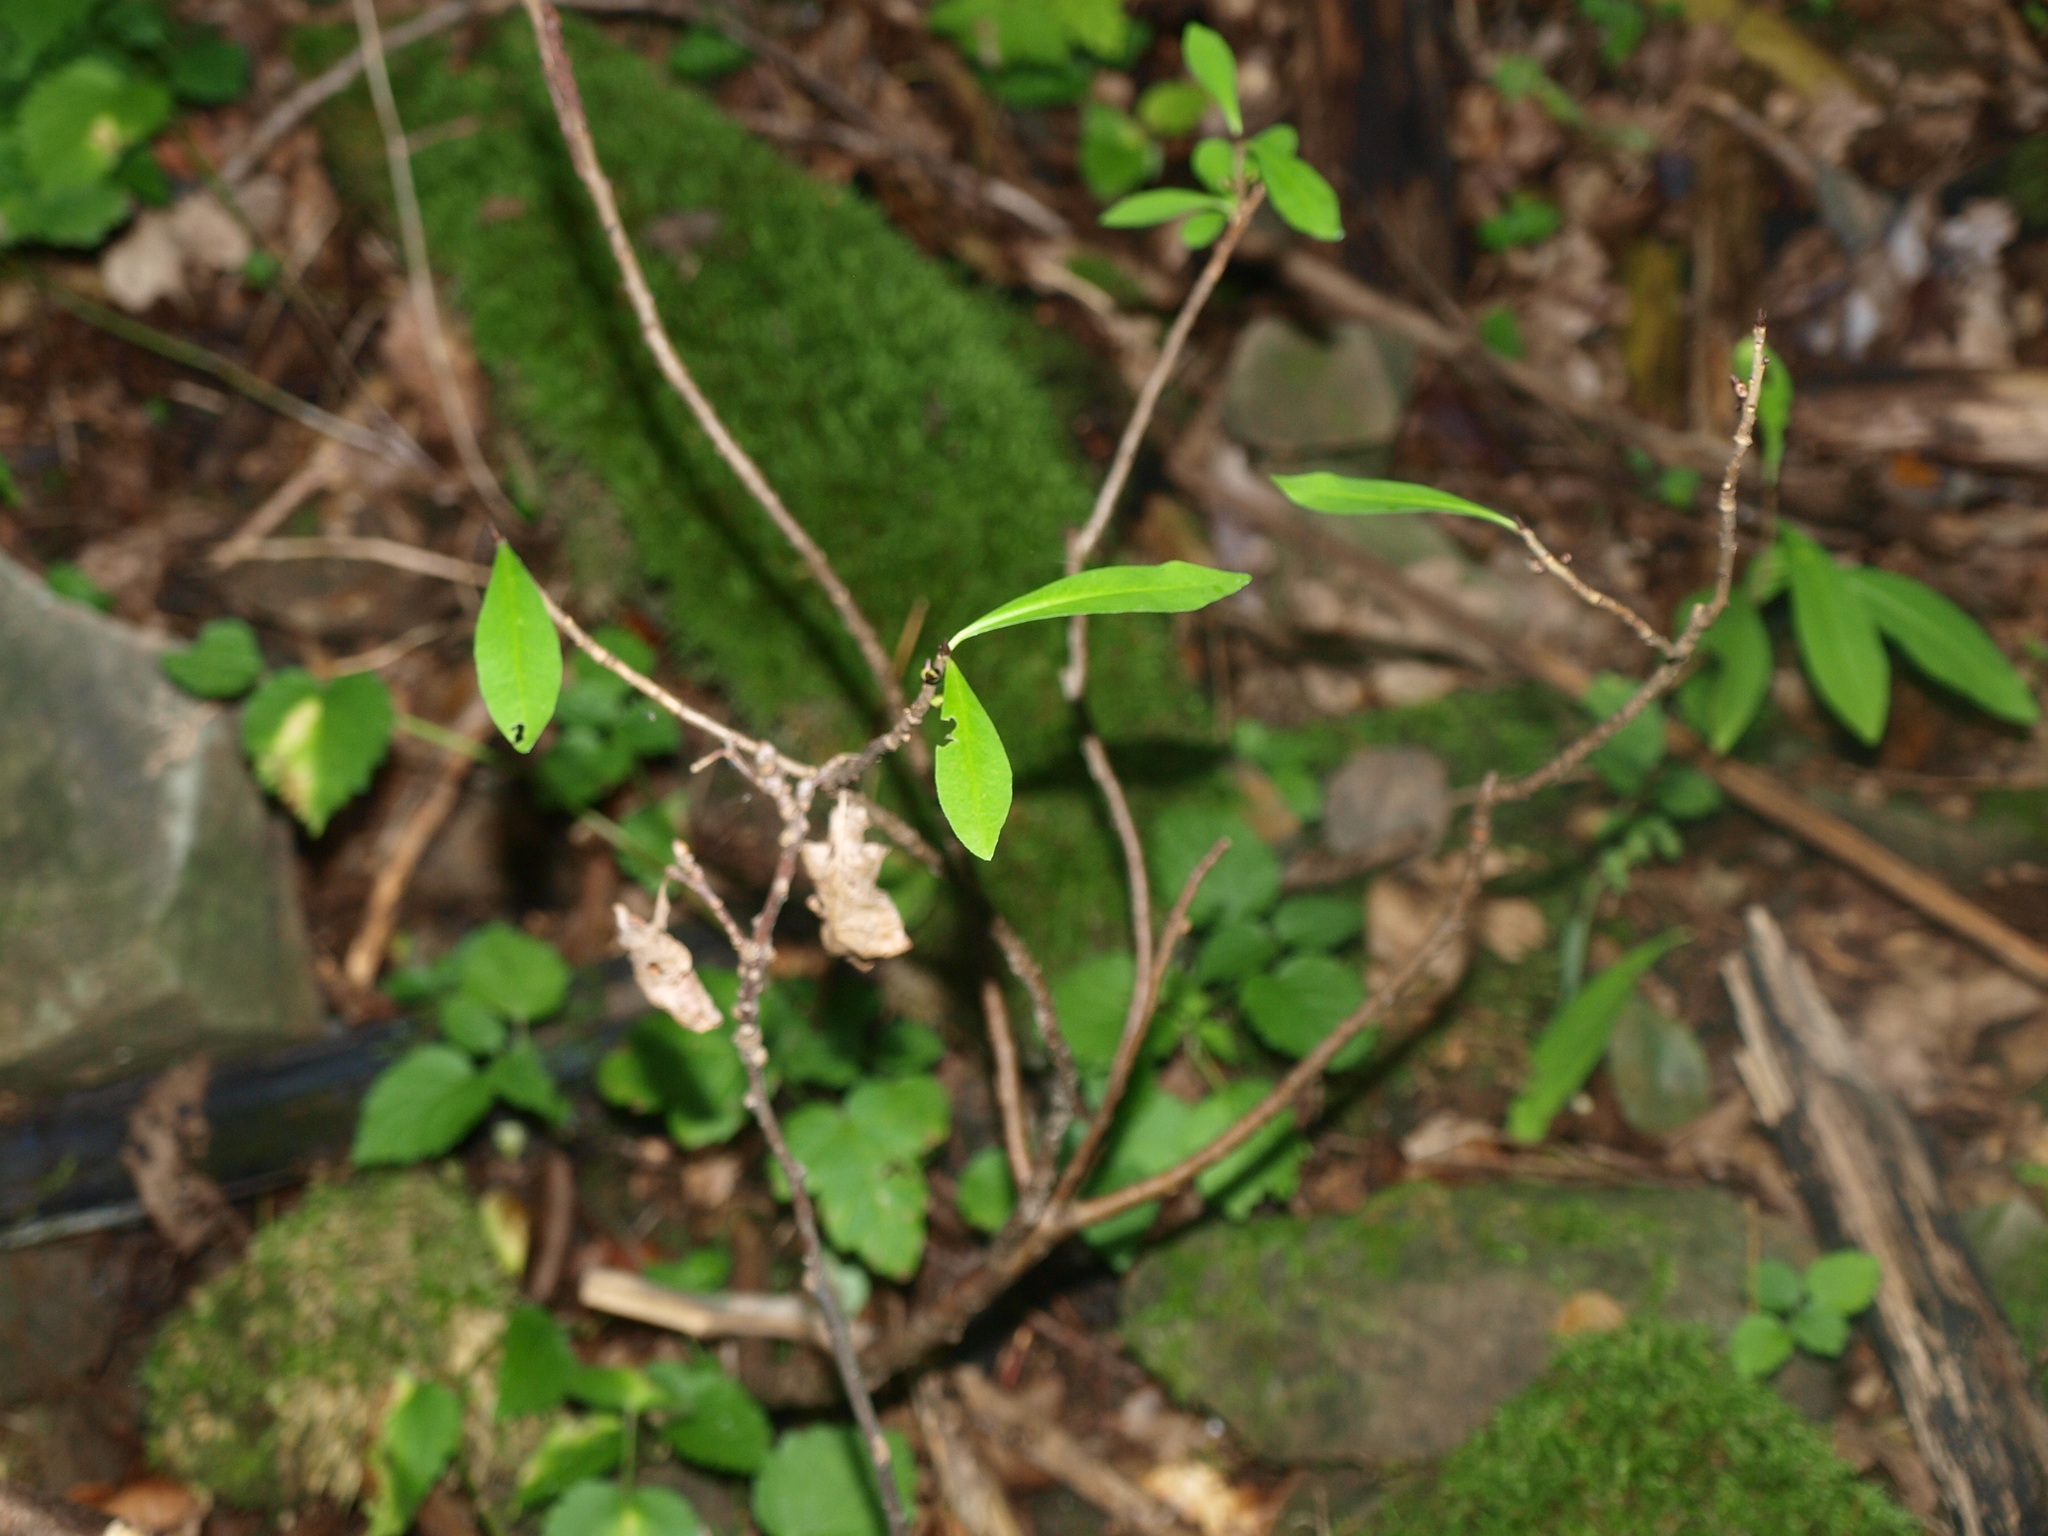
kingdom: Plantae
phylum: Tracheophyta
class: Magnoliopsida
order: Malvales
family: Thymelaeaceae
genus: Daphne
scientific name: Daphne mezereum
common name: Mezereon
